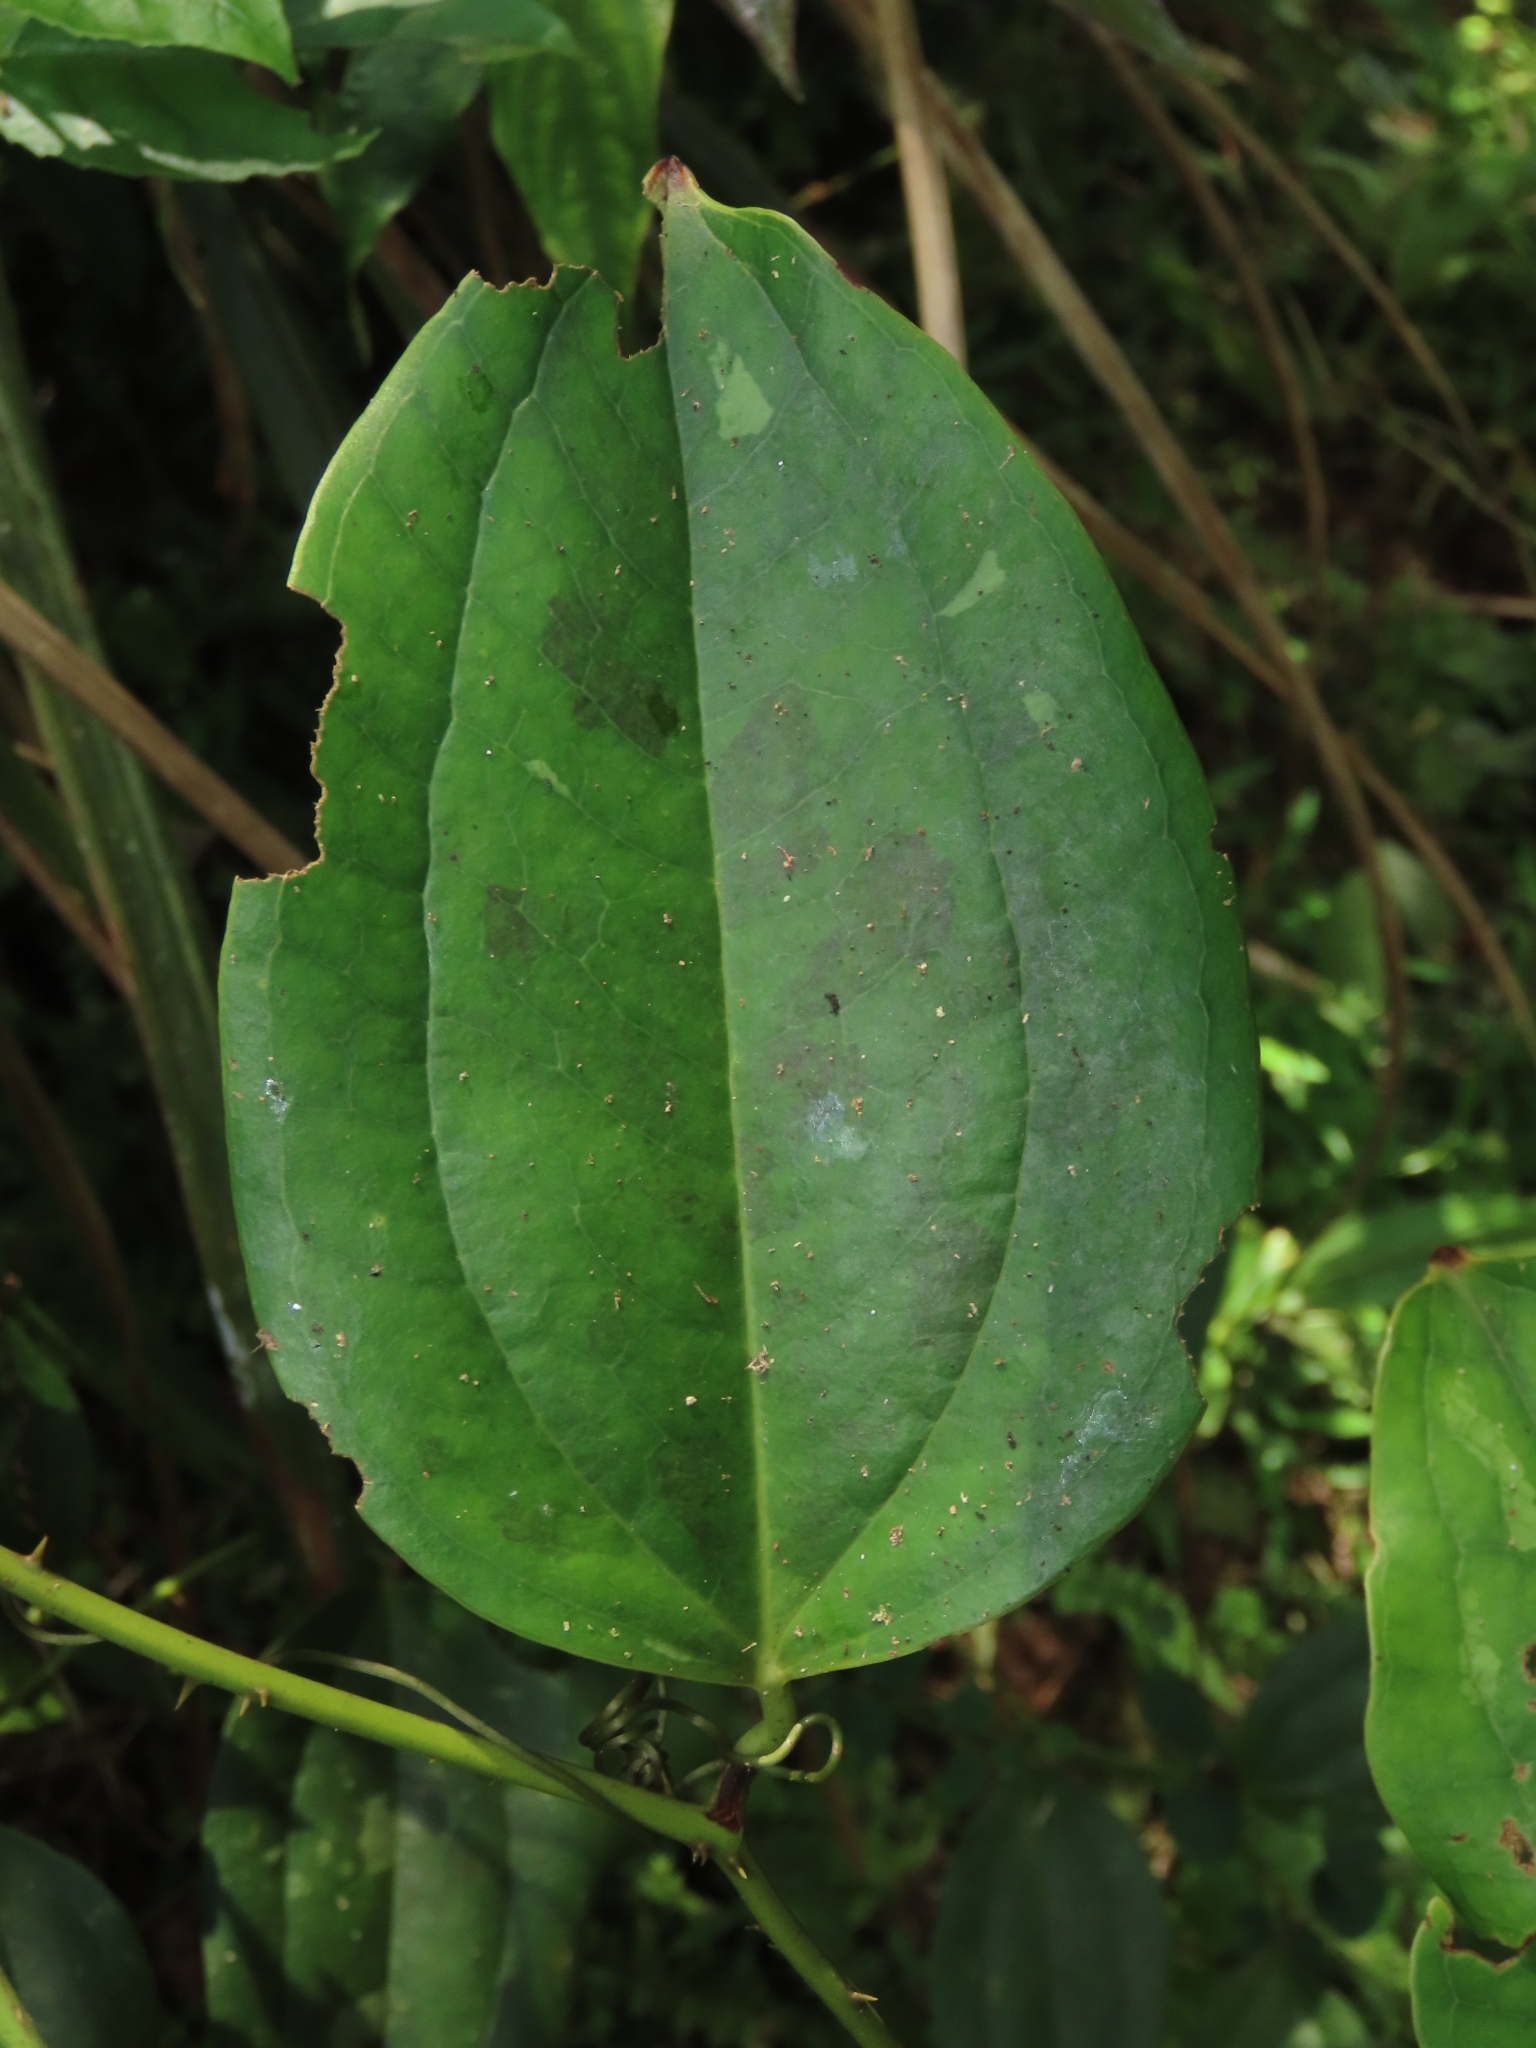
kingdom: Plantae
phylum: Tracheophyta
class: Liliopsida
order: Liliales
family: Smilacaceae
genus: Smilax
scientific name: Smilax bracteata
